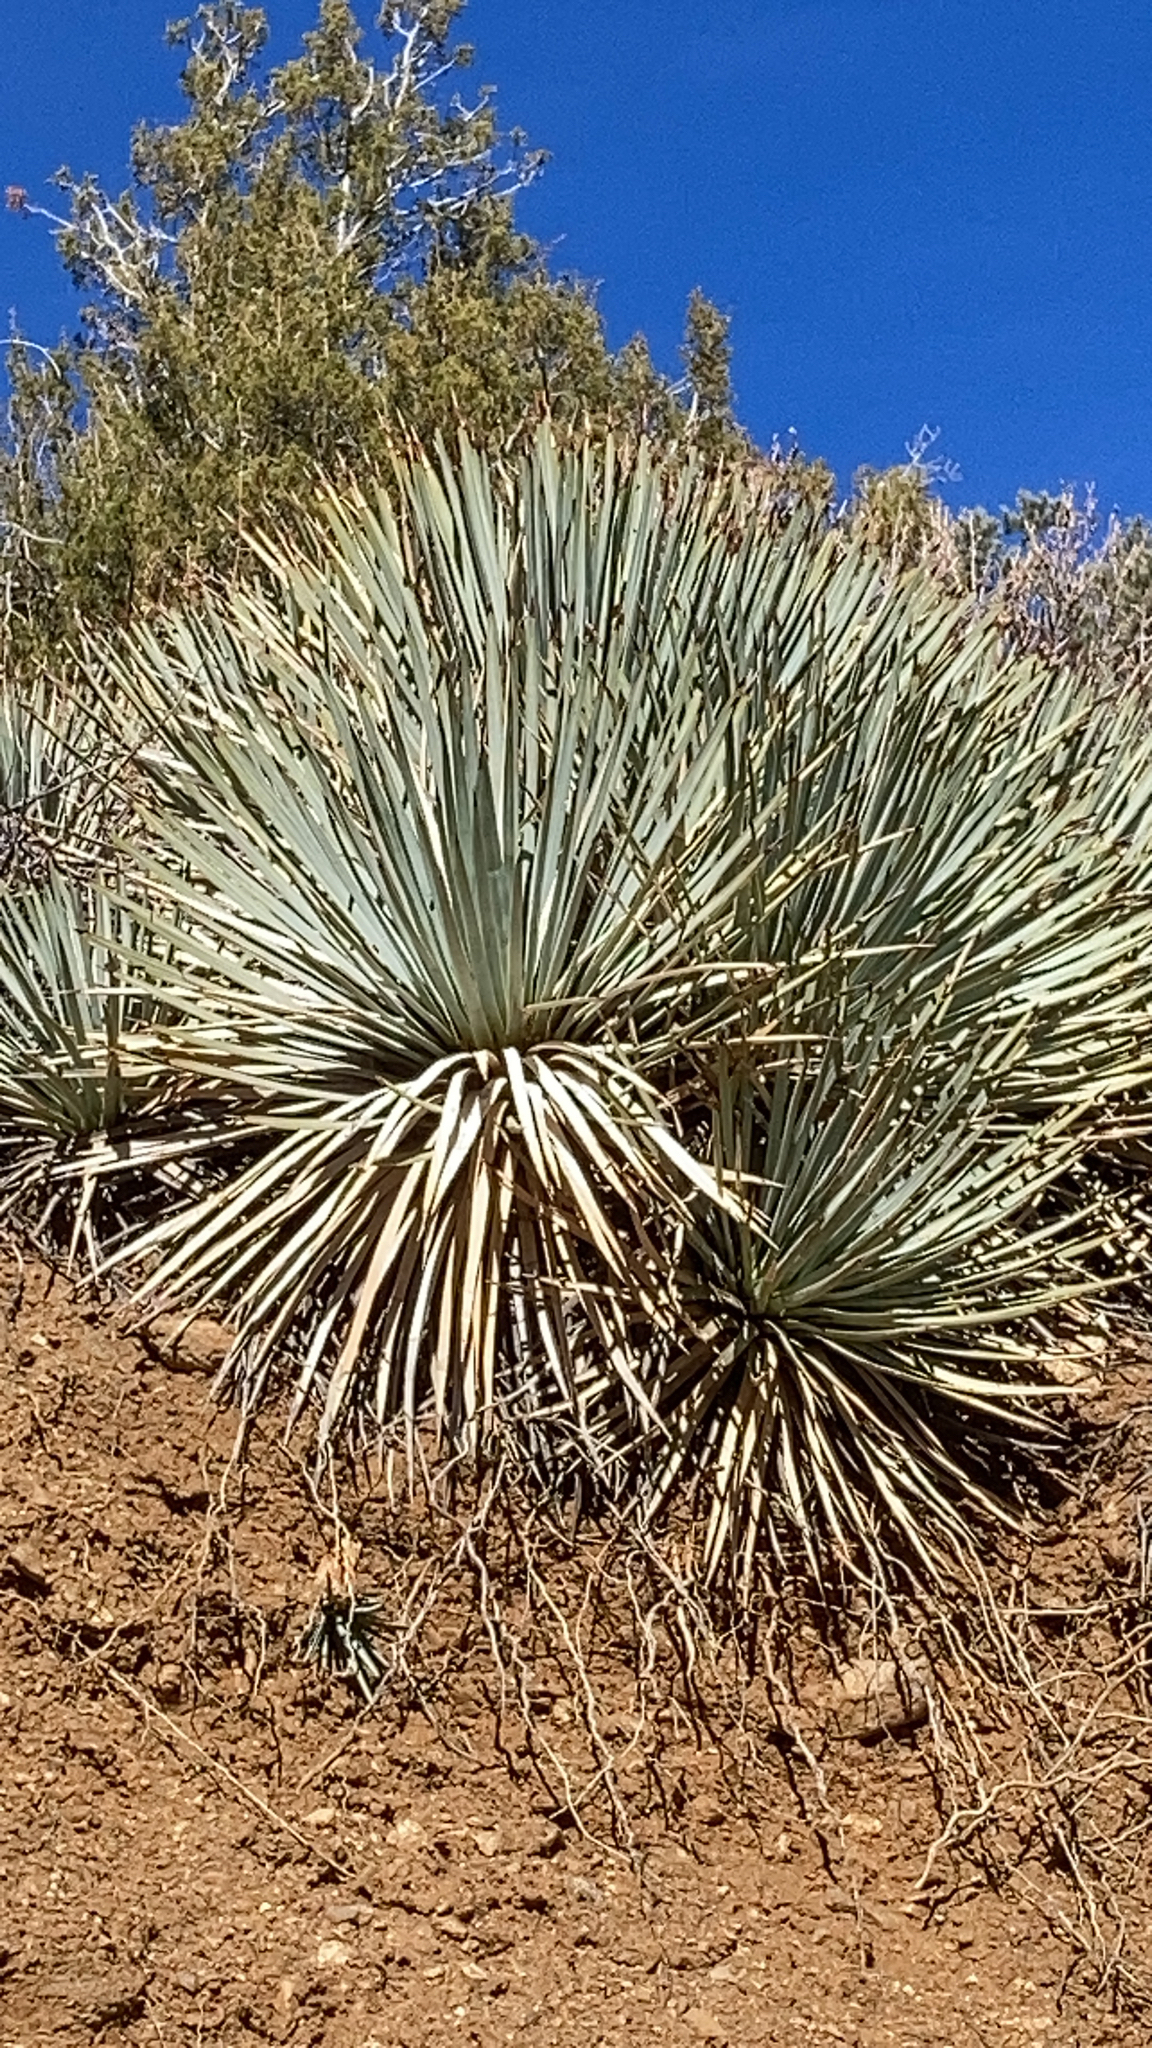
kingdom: Plantae
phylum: Tracheophyta
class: Liliopsida
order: Asparagales
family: Asparagaceae
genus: Hesperoyucca
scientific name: Hesperoyucca whipplei
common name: Our lord's-candle
